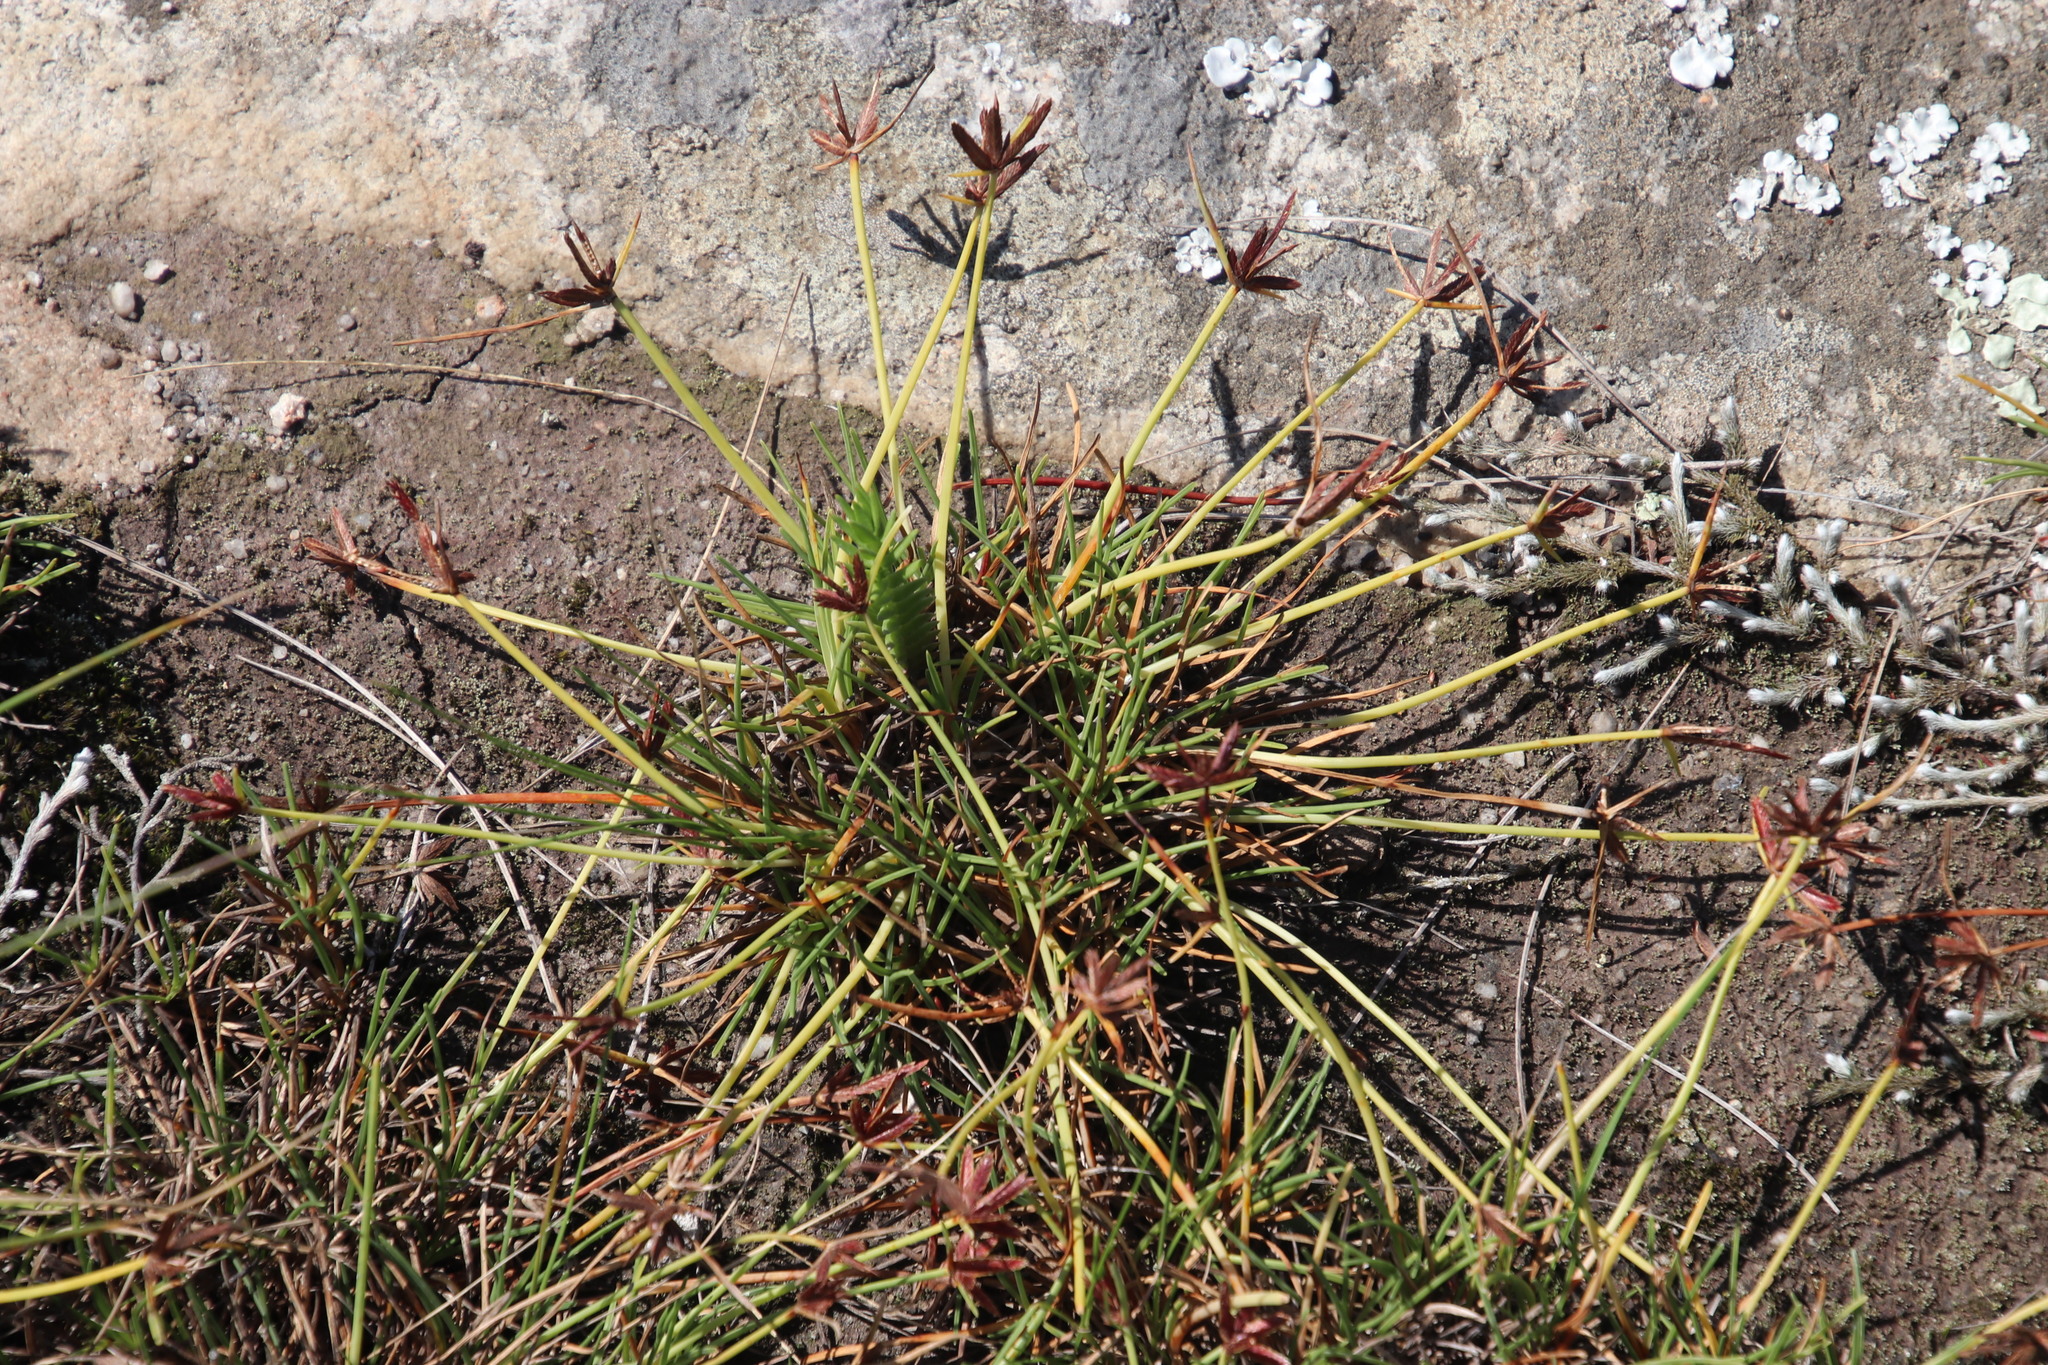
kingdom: Plantae
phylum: Tracheophyta
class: Liliopsida
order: Poales
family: Cyperaceae
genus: Cyperus
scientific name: Cyperus rupestris
